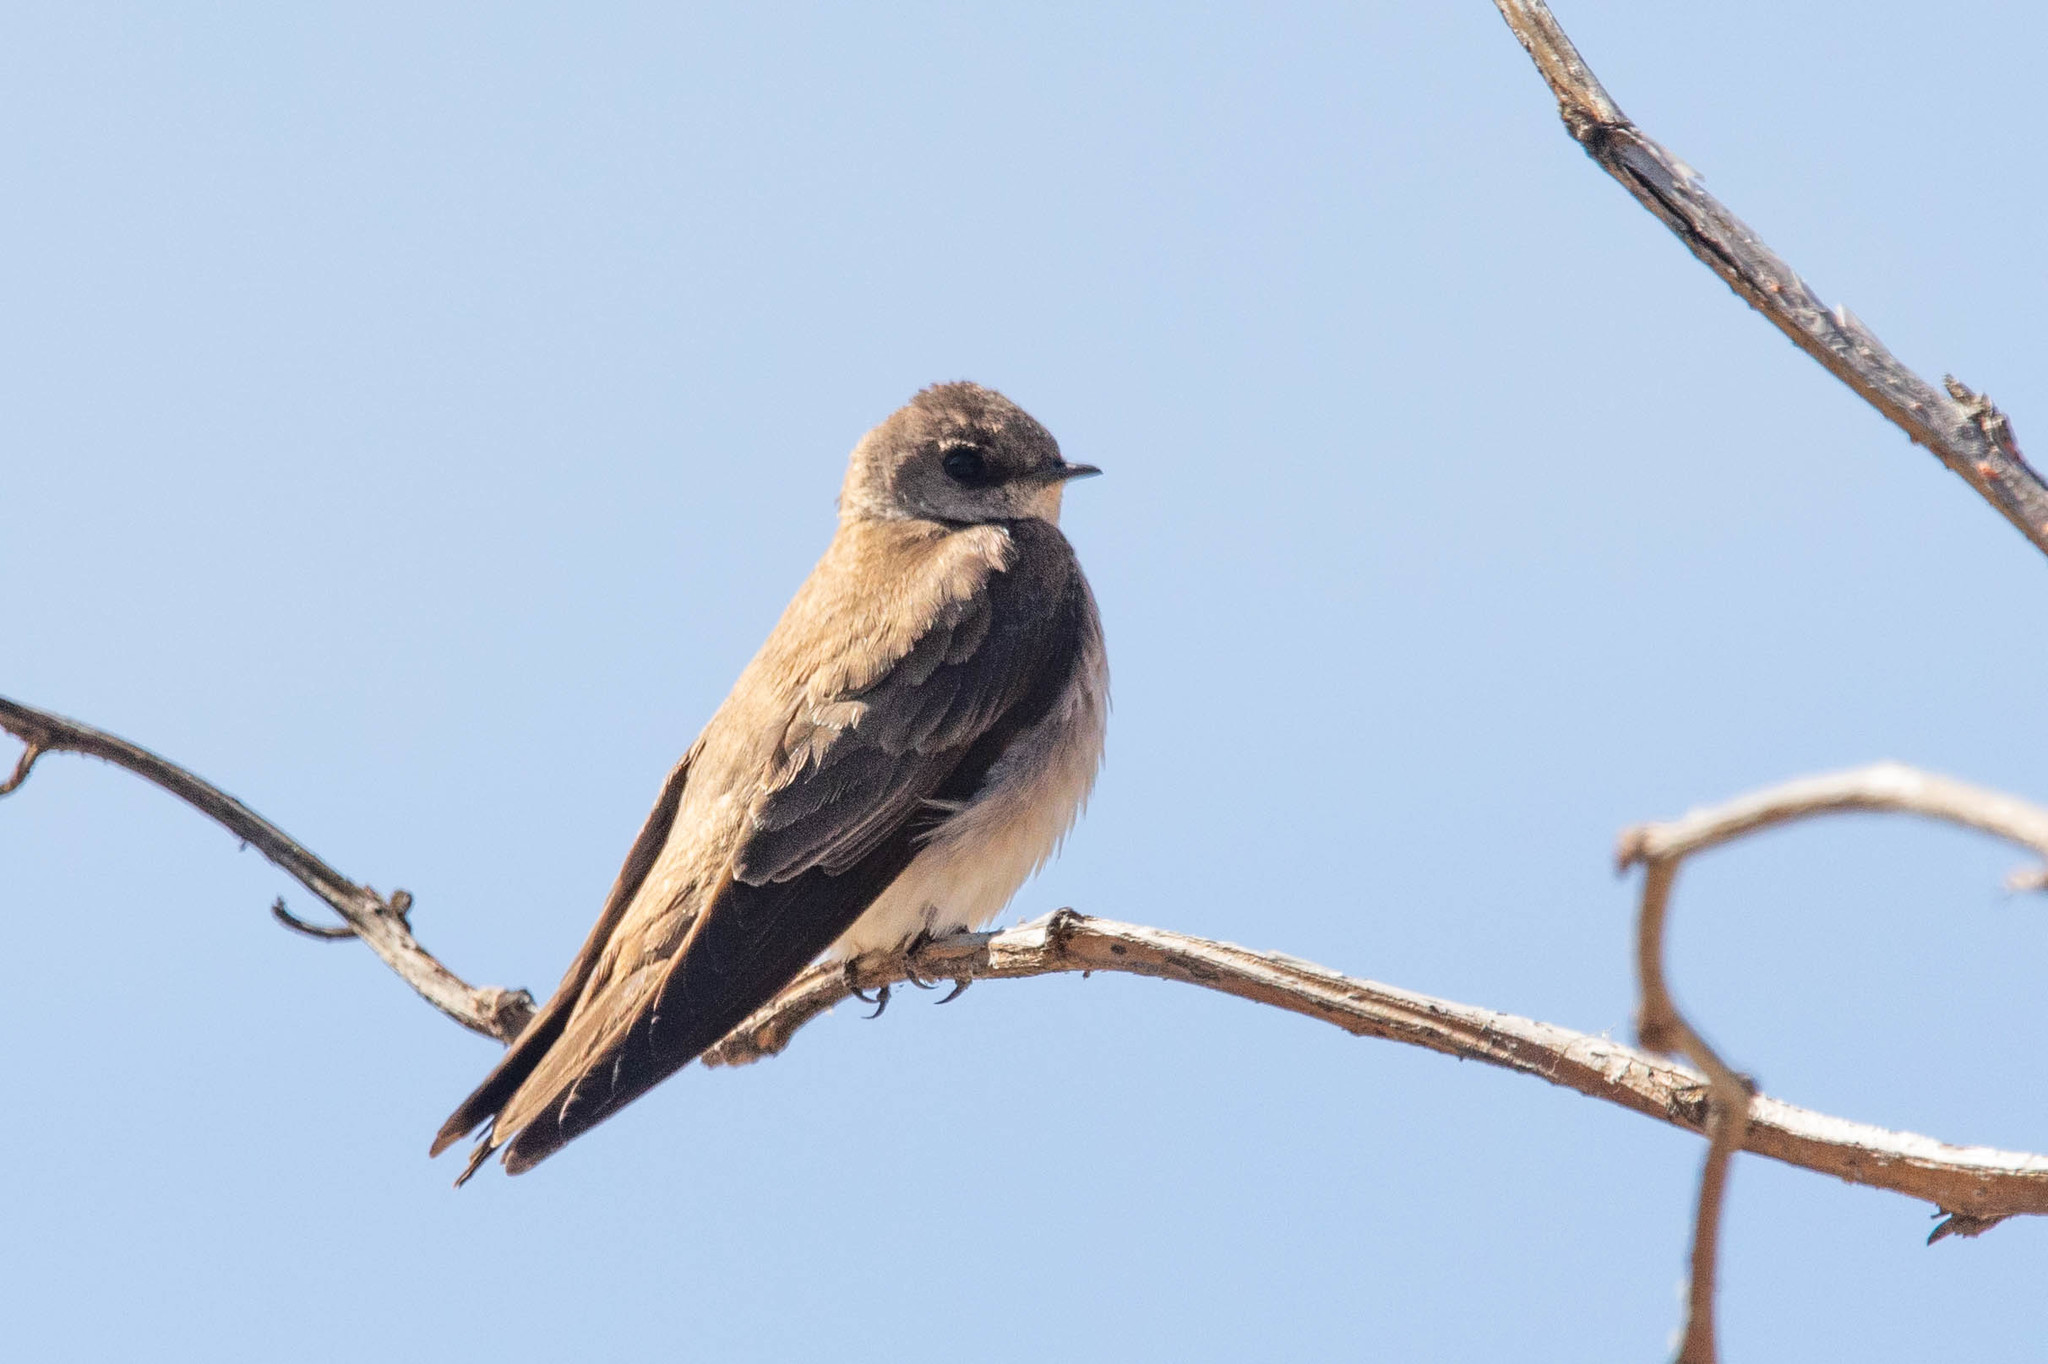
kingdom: Animalia
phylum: Chordata
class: Aves
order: Passeriformes
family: Hirundinidae
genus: Stelgidopteryx
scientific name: Stelgidopteryx serripennis
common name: Northern rough-winged swallow
